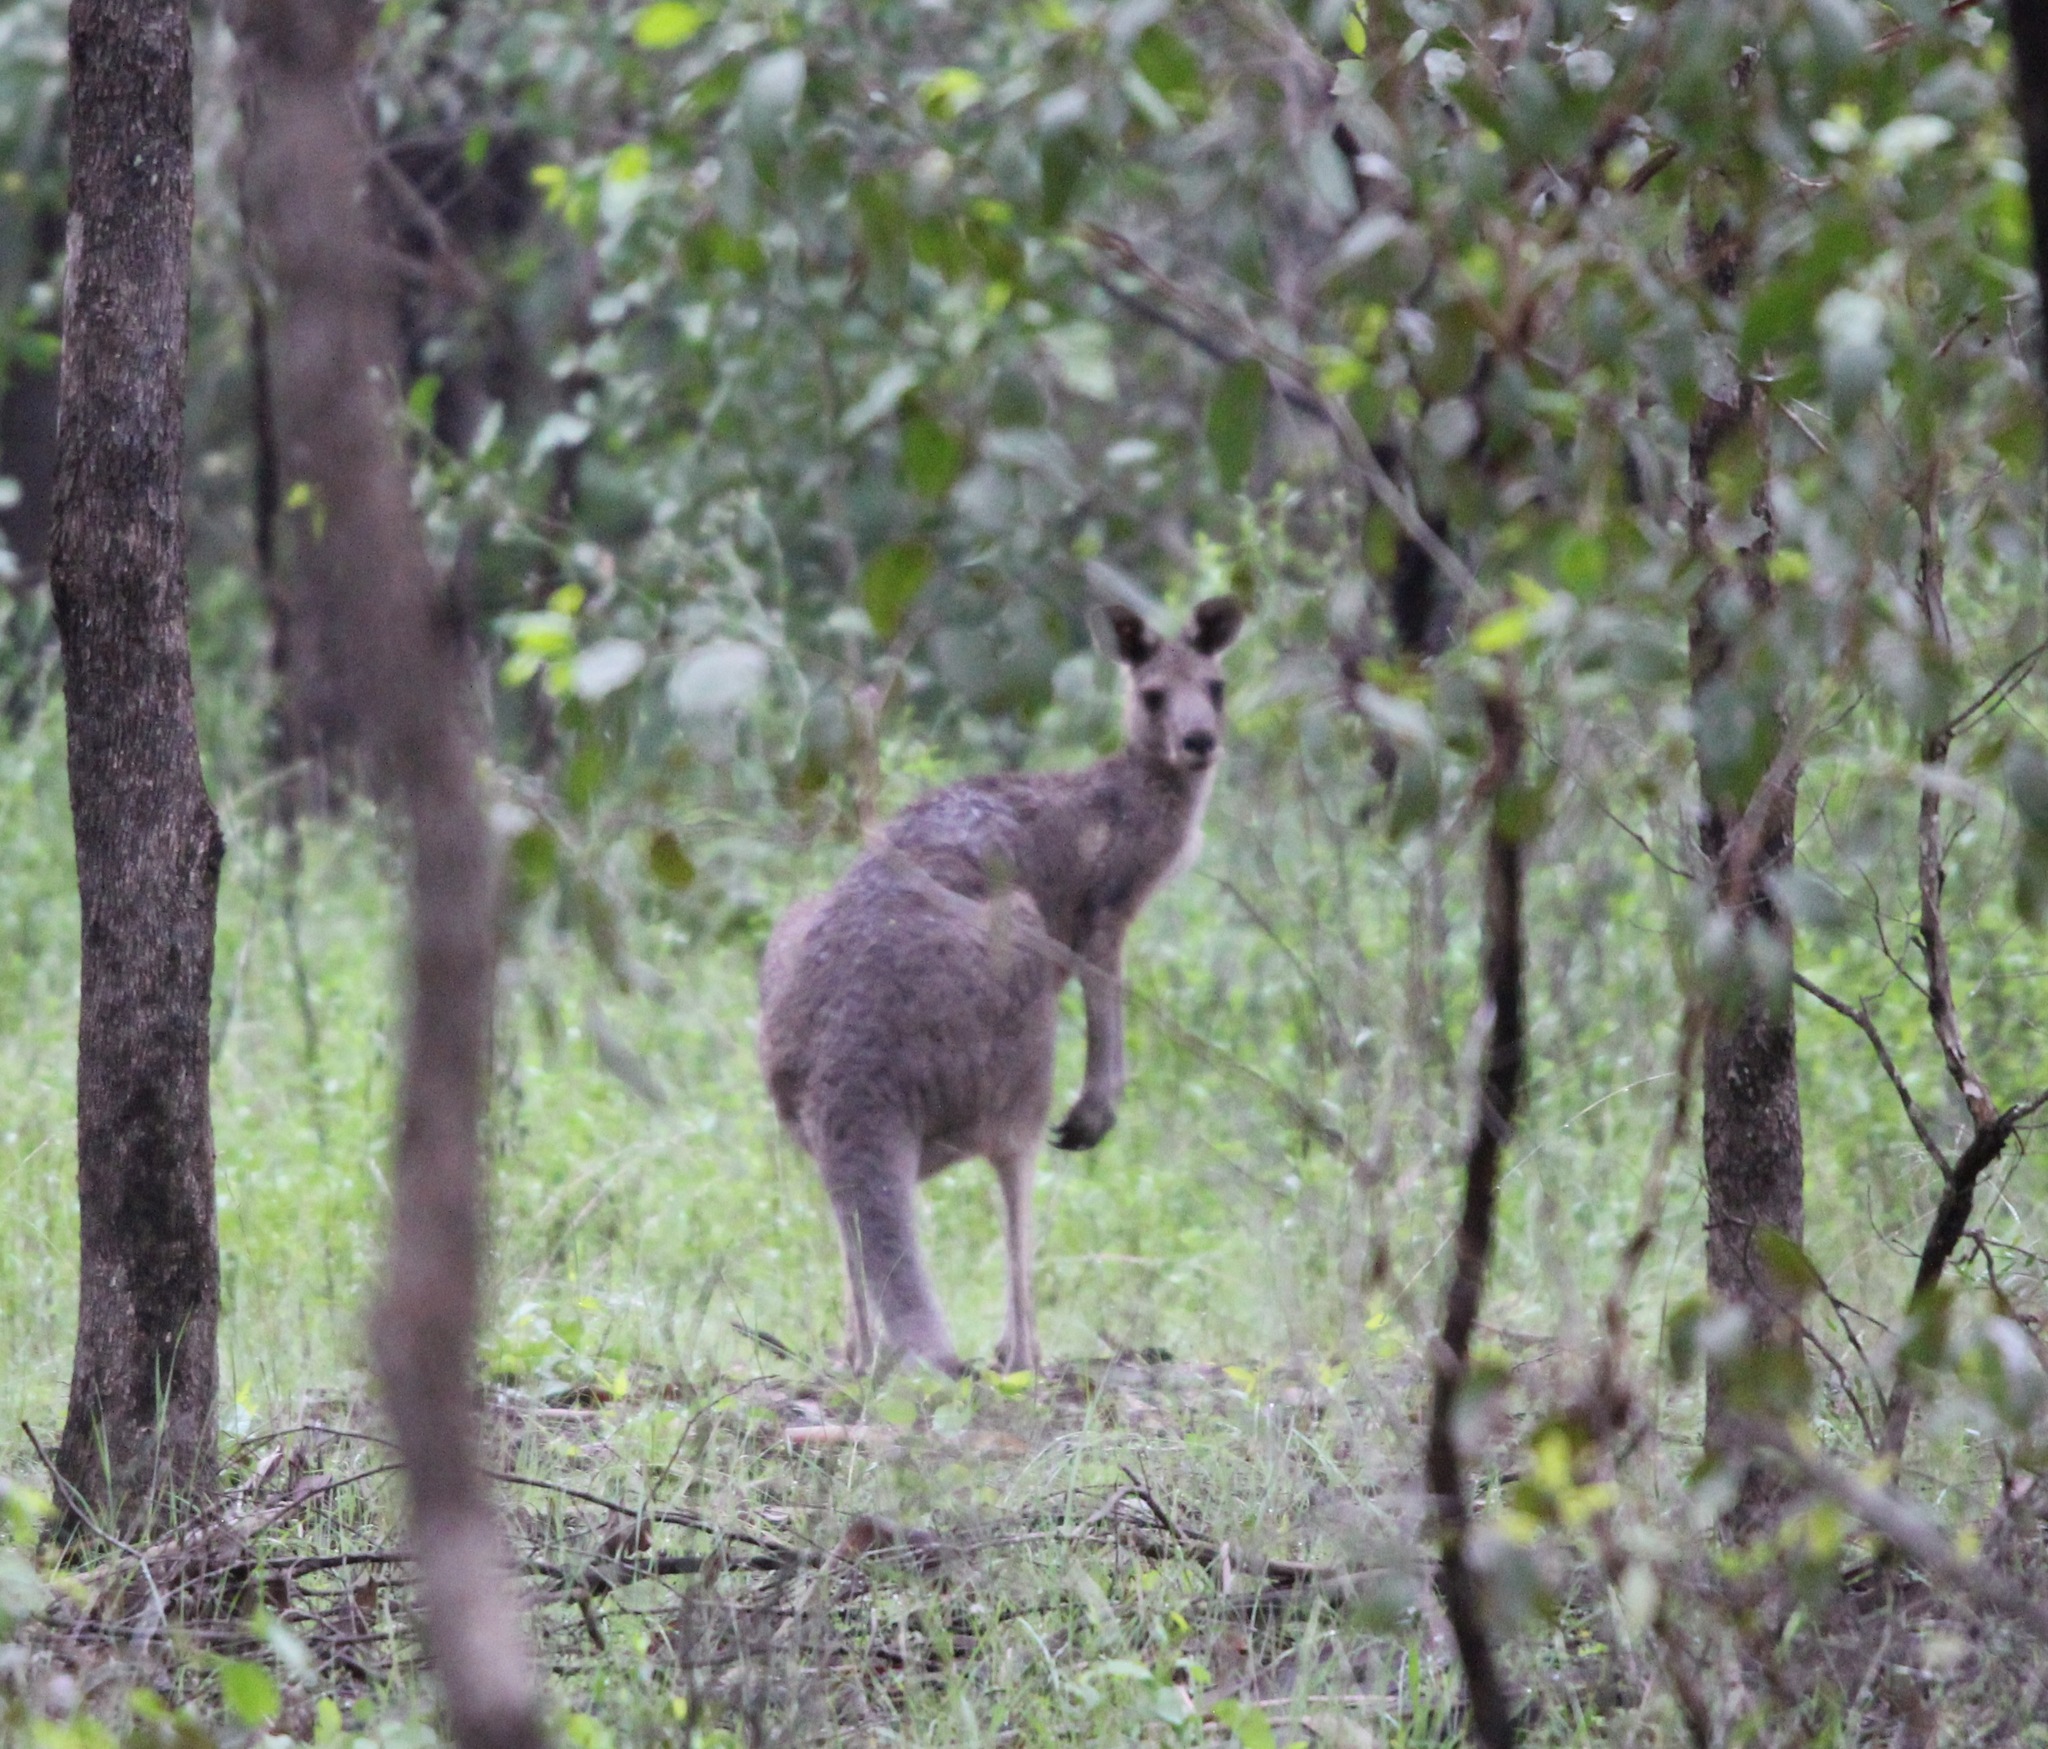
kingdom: Animalia
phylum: Chordata
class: Mammalia
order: Diprotodontia
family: Macropodidae
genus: Macropus
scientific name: Macropus giganteus
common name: Eastern grey kangaroo
